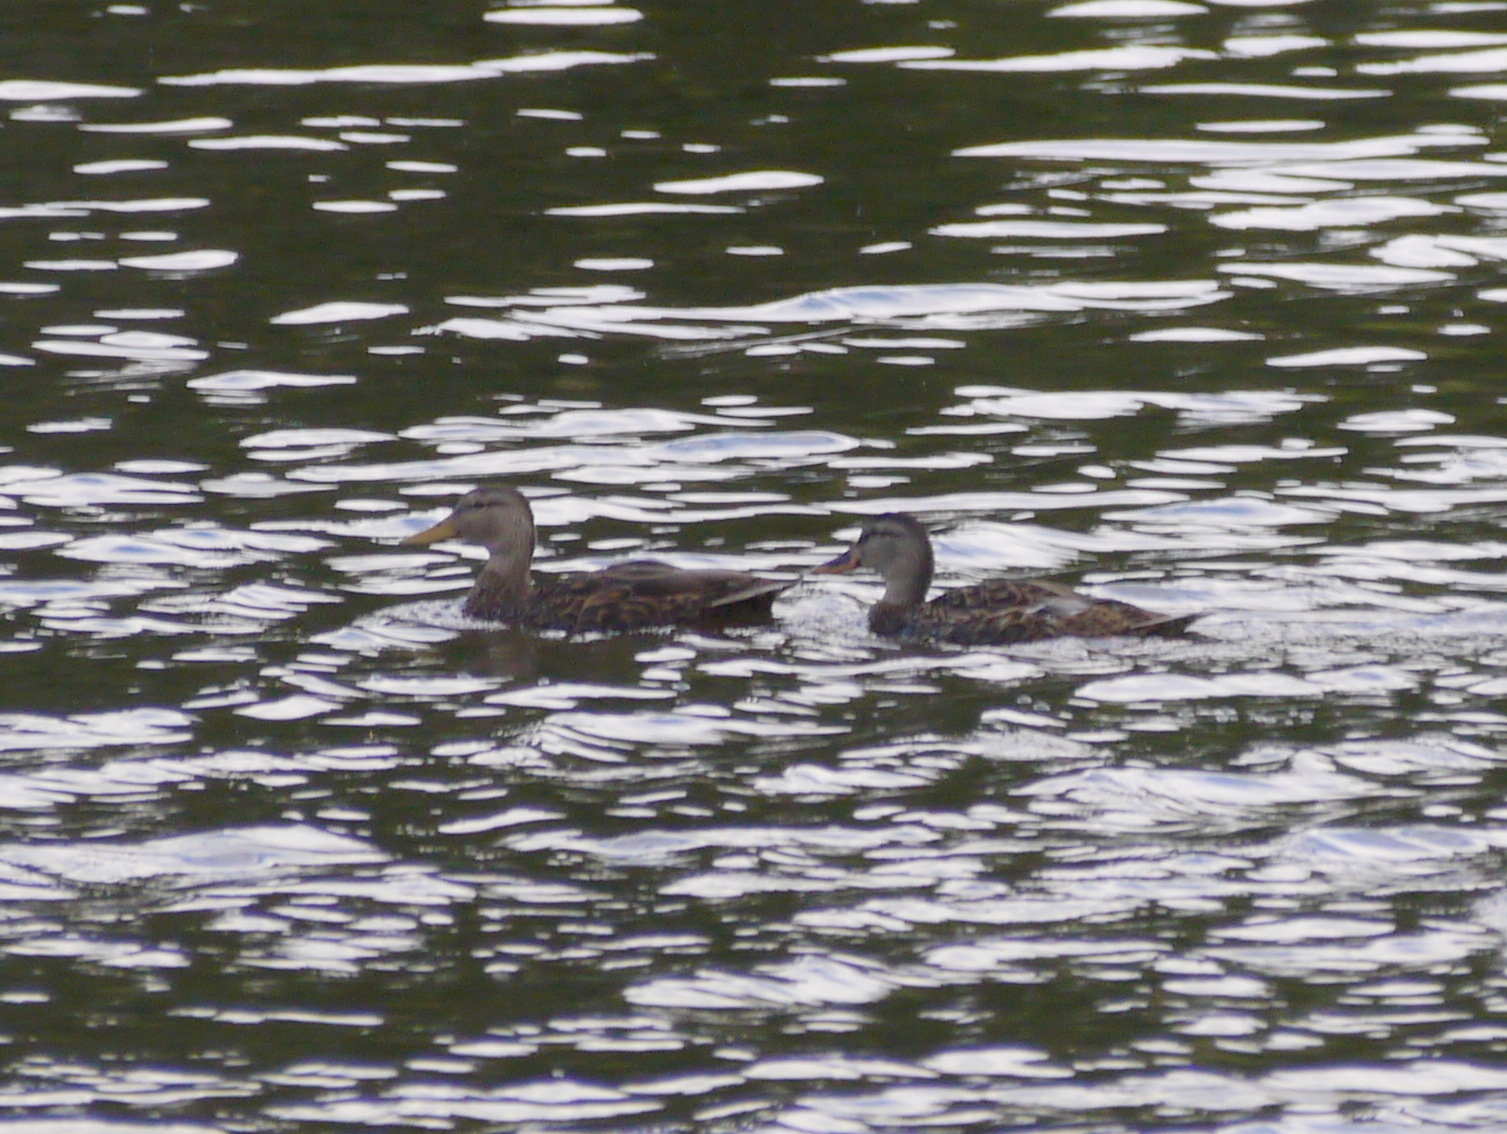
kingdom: Animalia
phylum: Chordata
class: Aves
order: Anseriformes
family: Anatidae
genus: Anas
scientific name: Anas diazi
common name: Mexican duck
